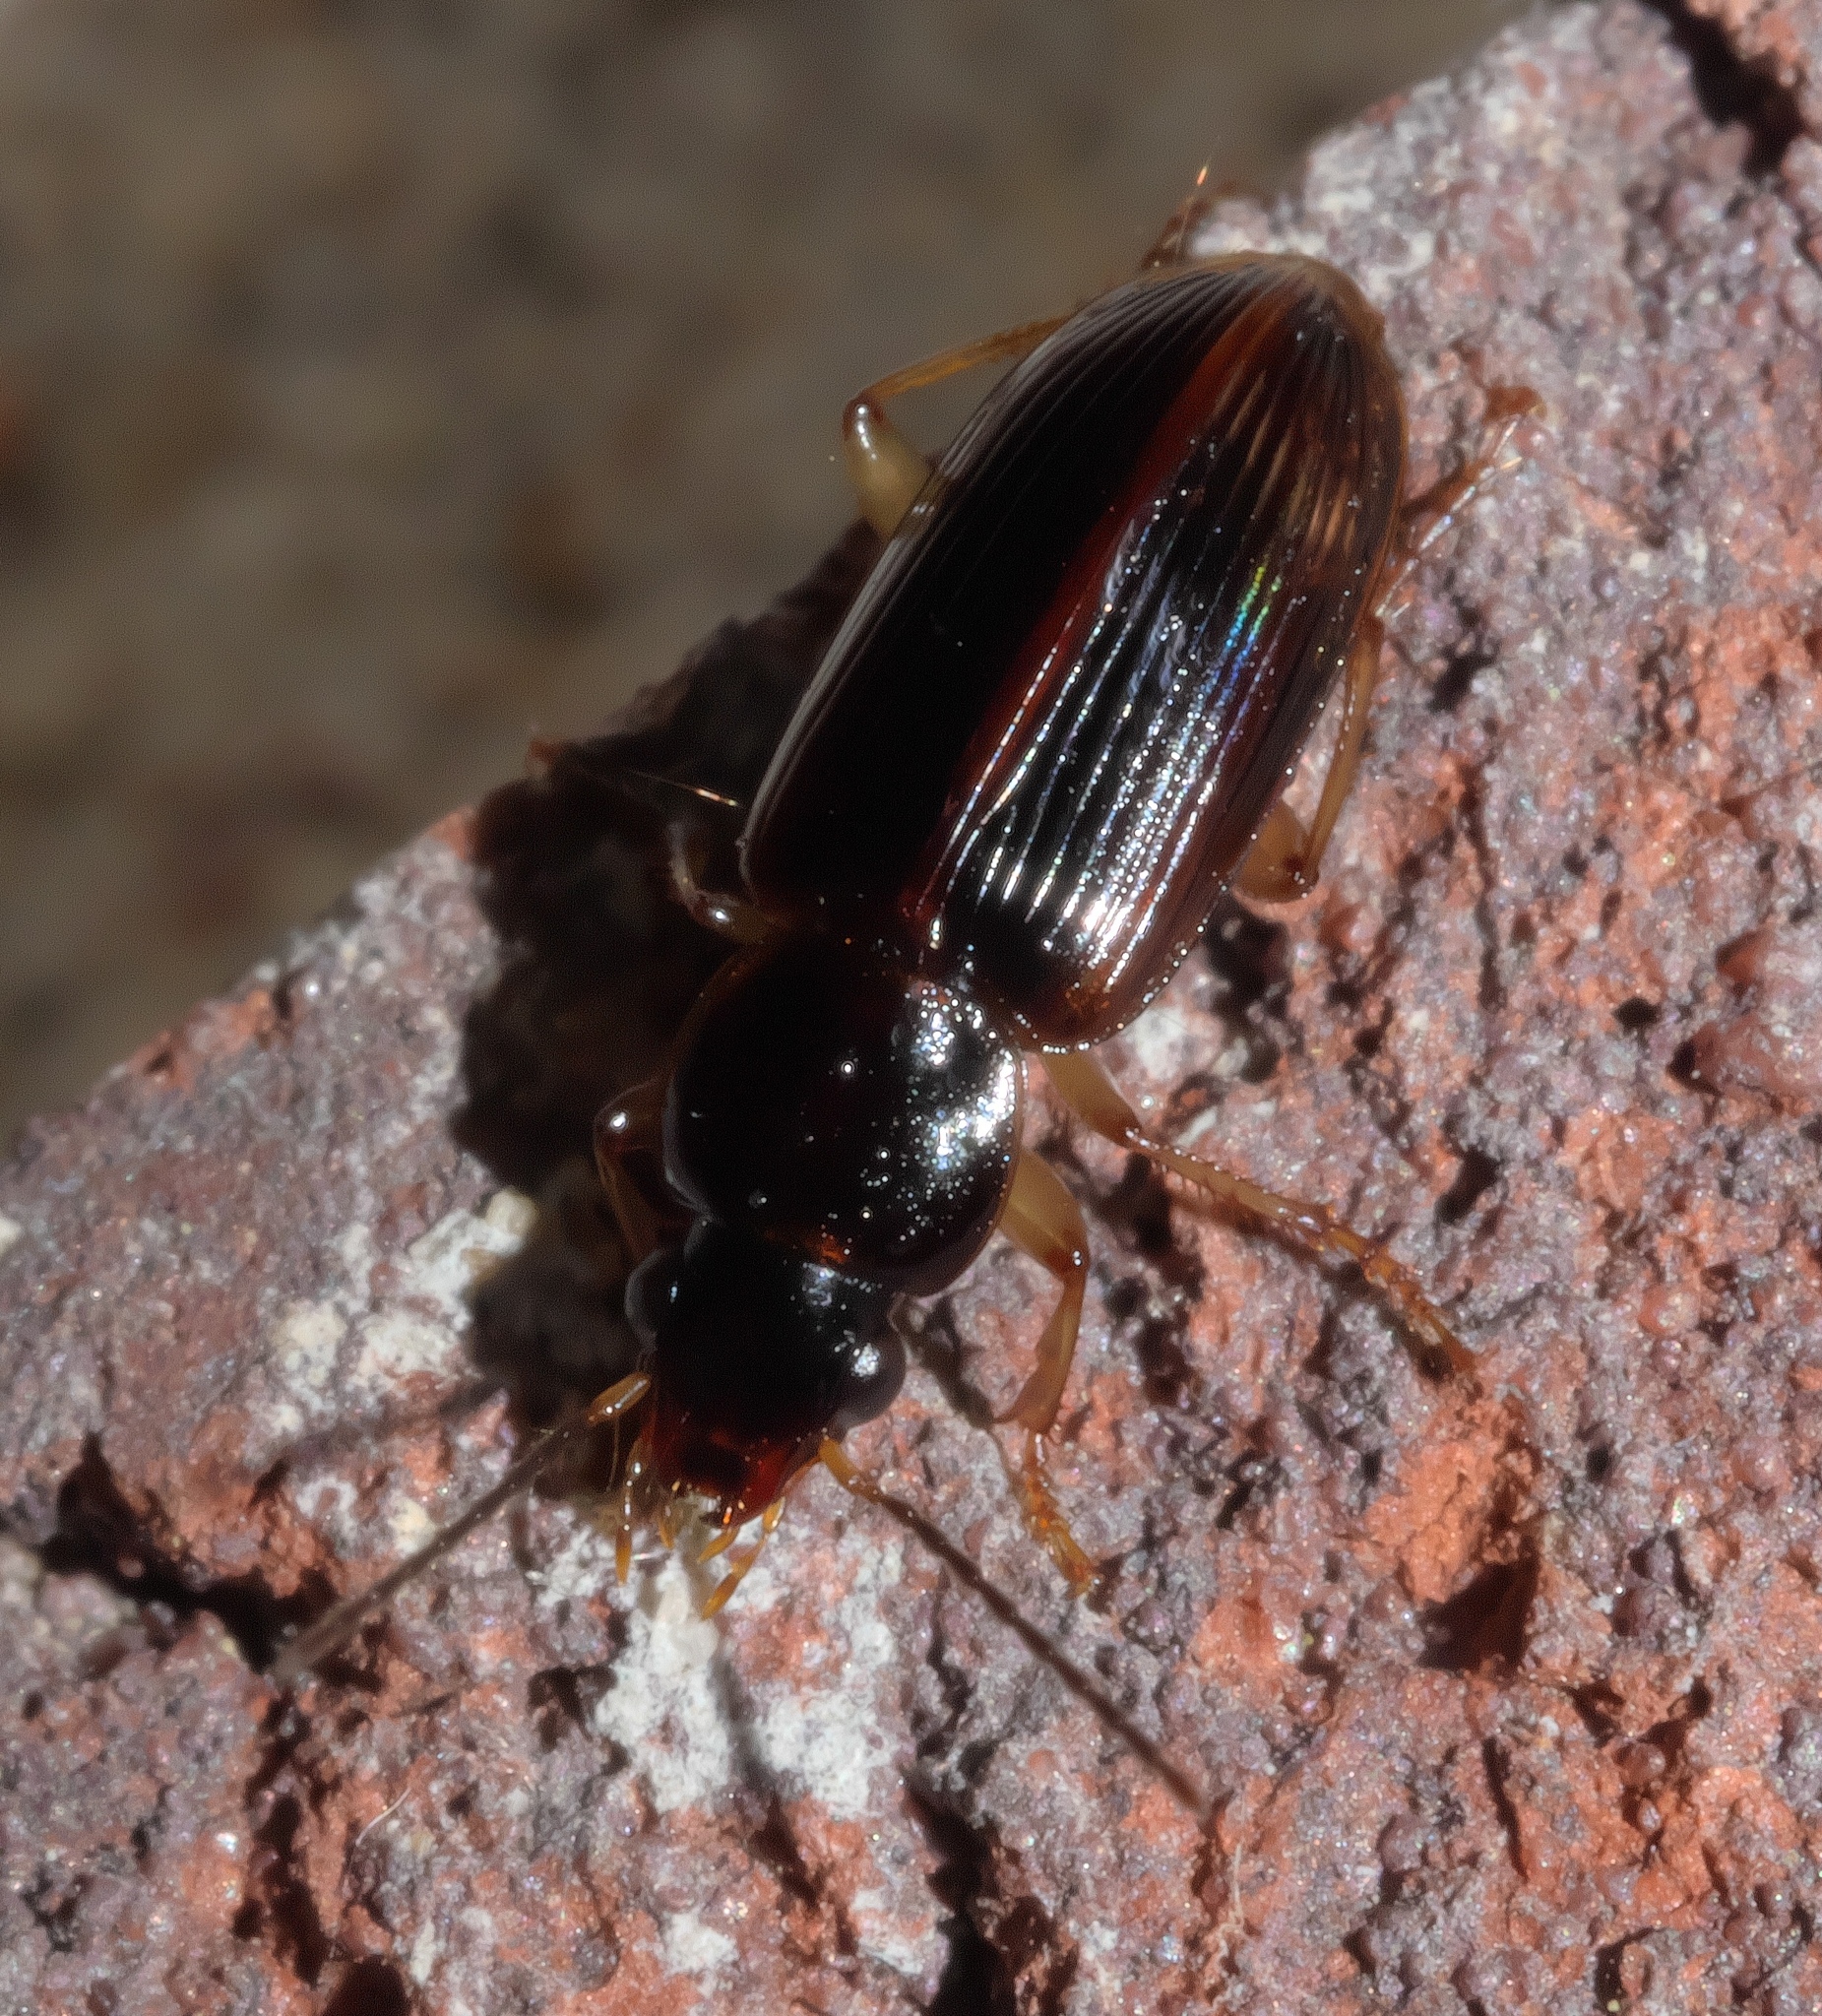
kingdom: Animalia
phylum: Arthropoda
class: Insecta
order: Coleoptera
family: Carabidae
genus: Stenolophus
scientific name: Stenolophus ochropezus
